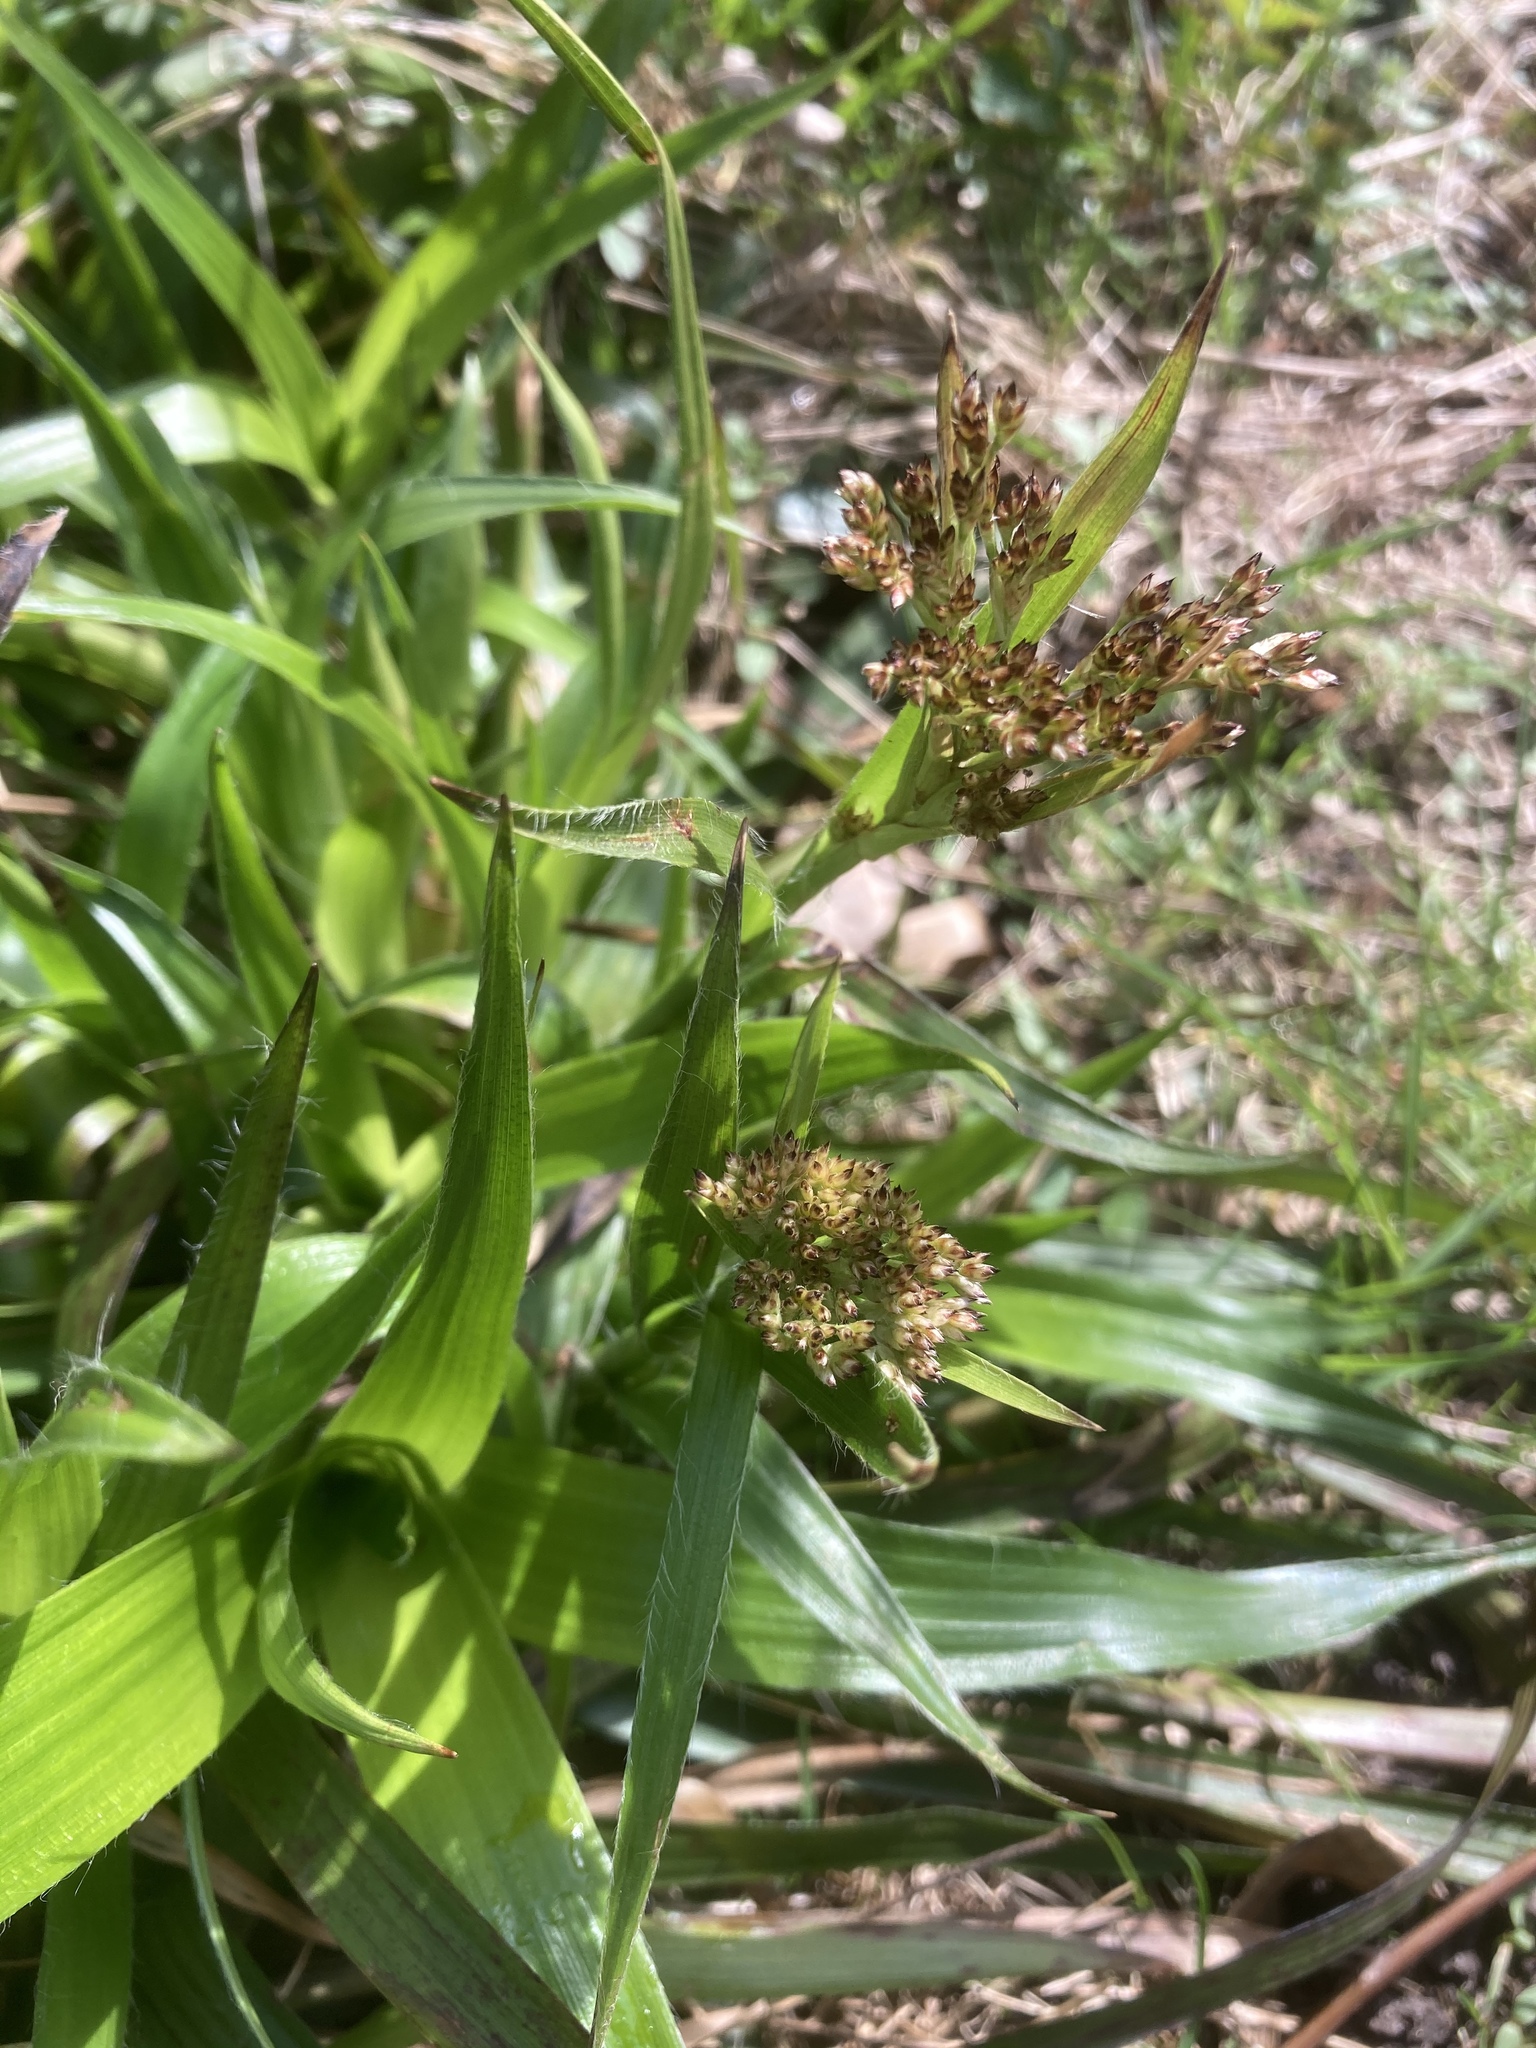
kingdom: Plantae
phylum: Tracheophyta
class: Liliopsida
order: Poales
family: Juncaceae
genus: Luzula
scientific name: Luzula sylvatica
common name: Great wood-rush
